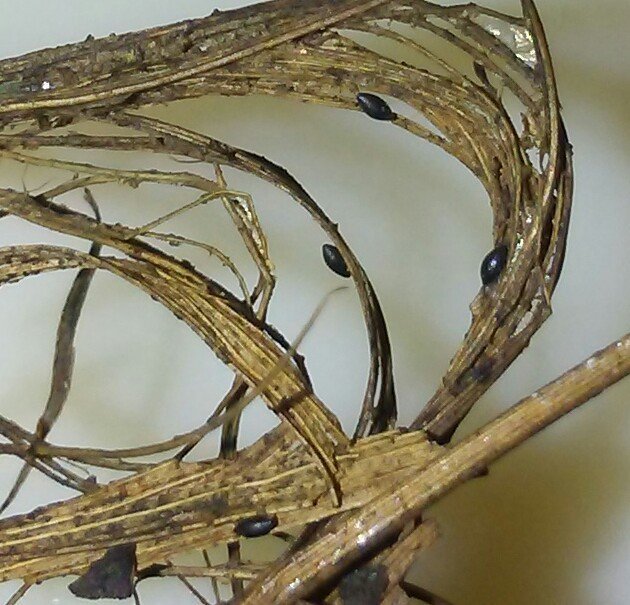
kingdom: Animalia
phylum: Arthropoda
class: Insecta
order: Diptera
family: Culicidae
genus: Psorophora
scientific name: Psorophora howardii
